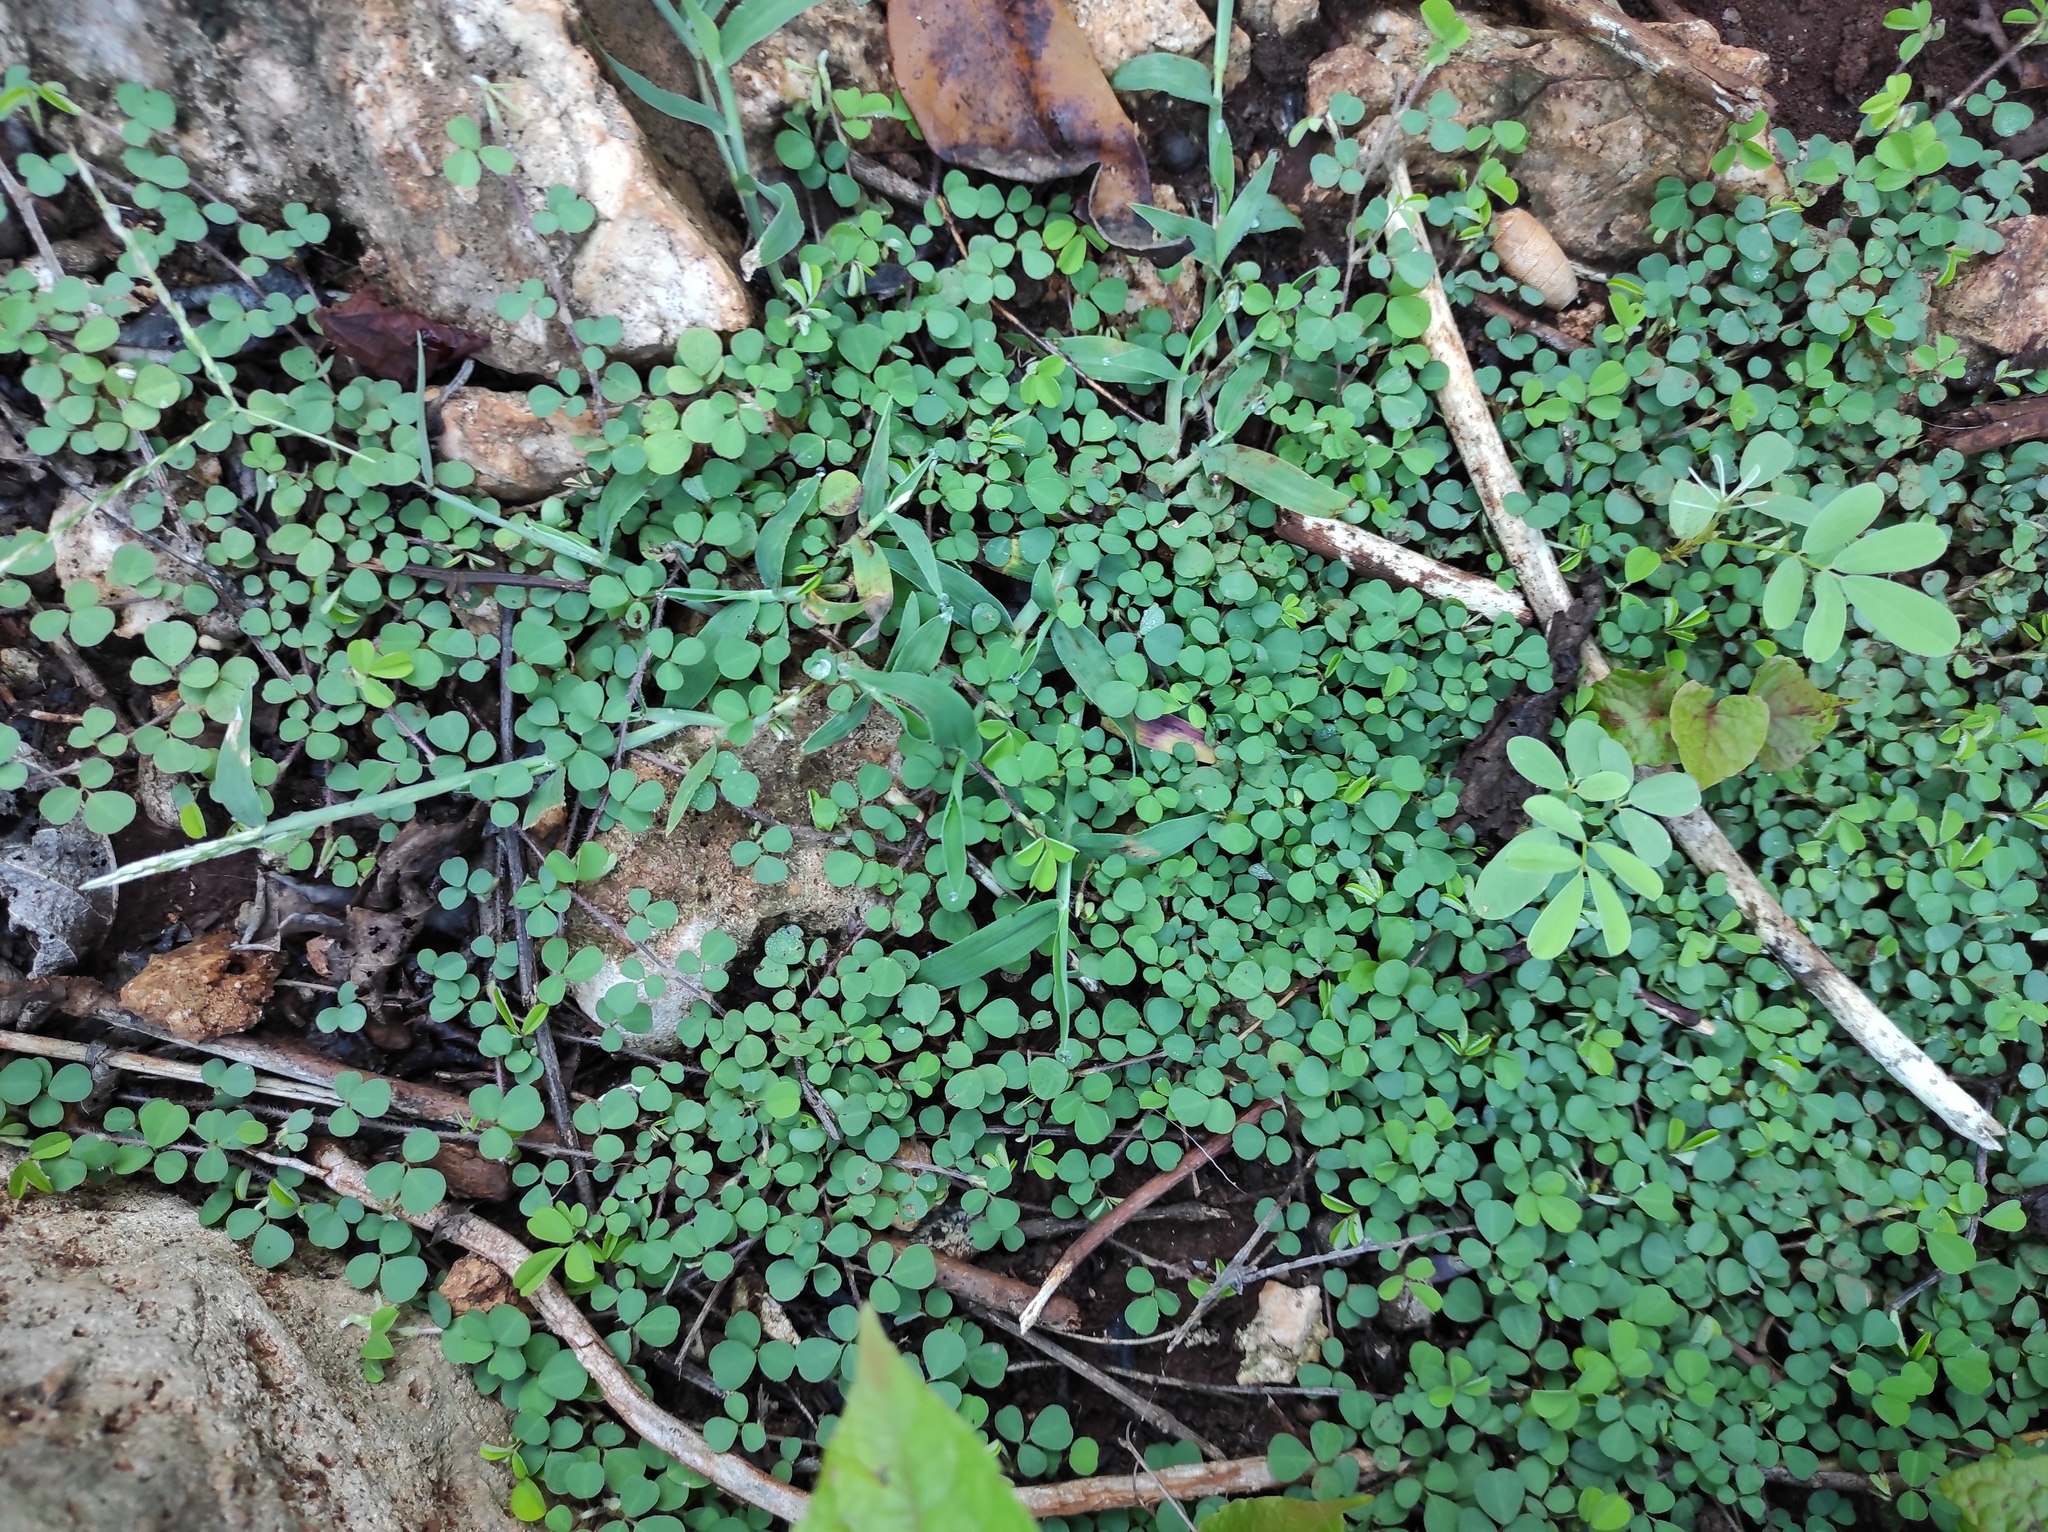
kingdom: Plantae
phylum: Tracheophyta
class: Magnoliopsida
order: Fabales
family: Fabaceae
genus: Grona
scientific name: Grona triflora
